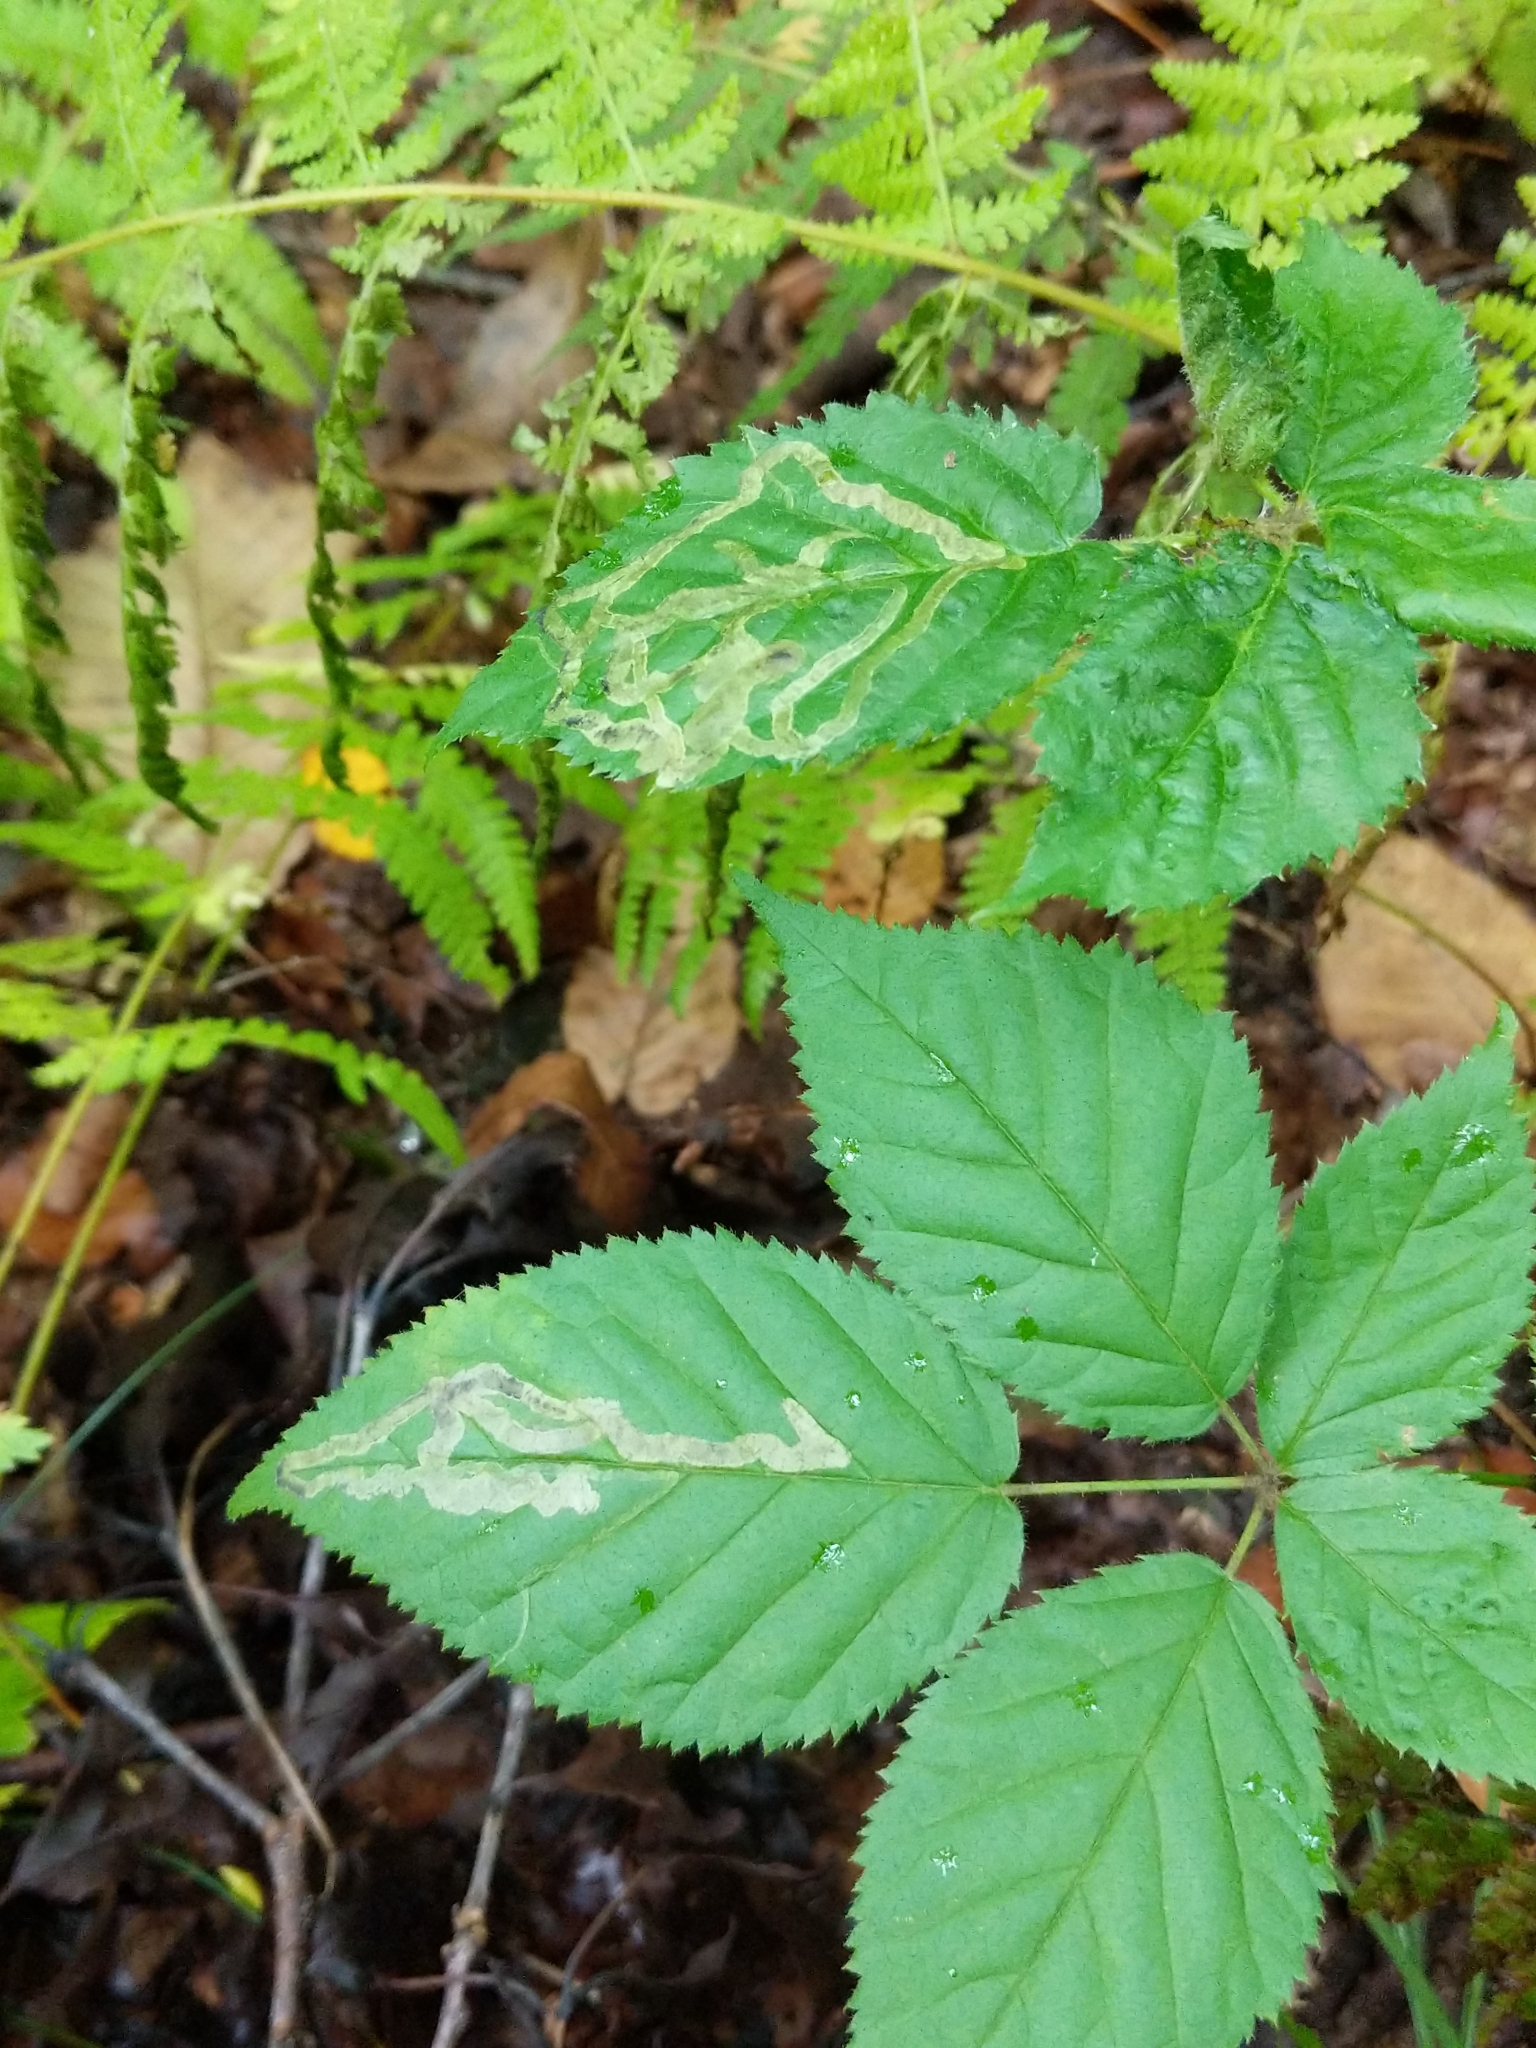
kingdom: Animalia
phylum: Arthropoda
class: Insecta
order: Diptera
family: Agromyzidae
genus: Agromyza
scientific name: Agromyza vockerothi
